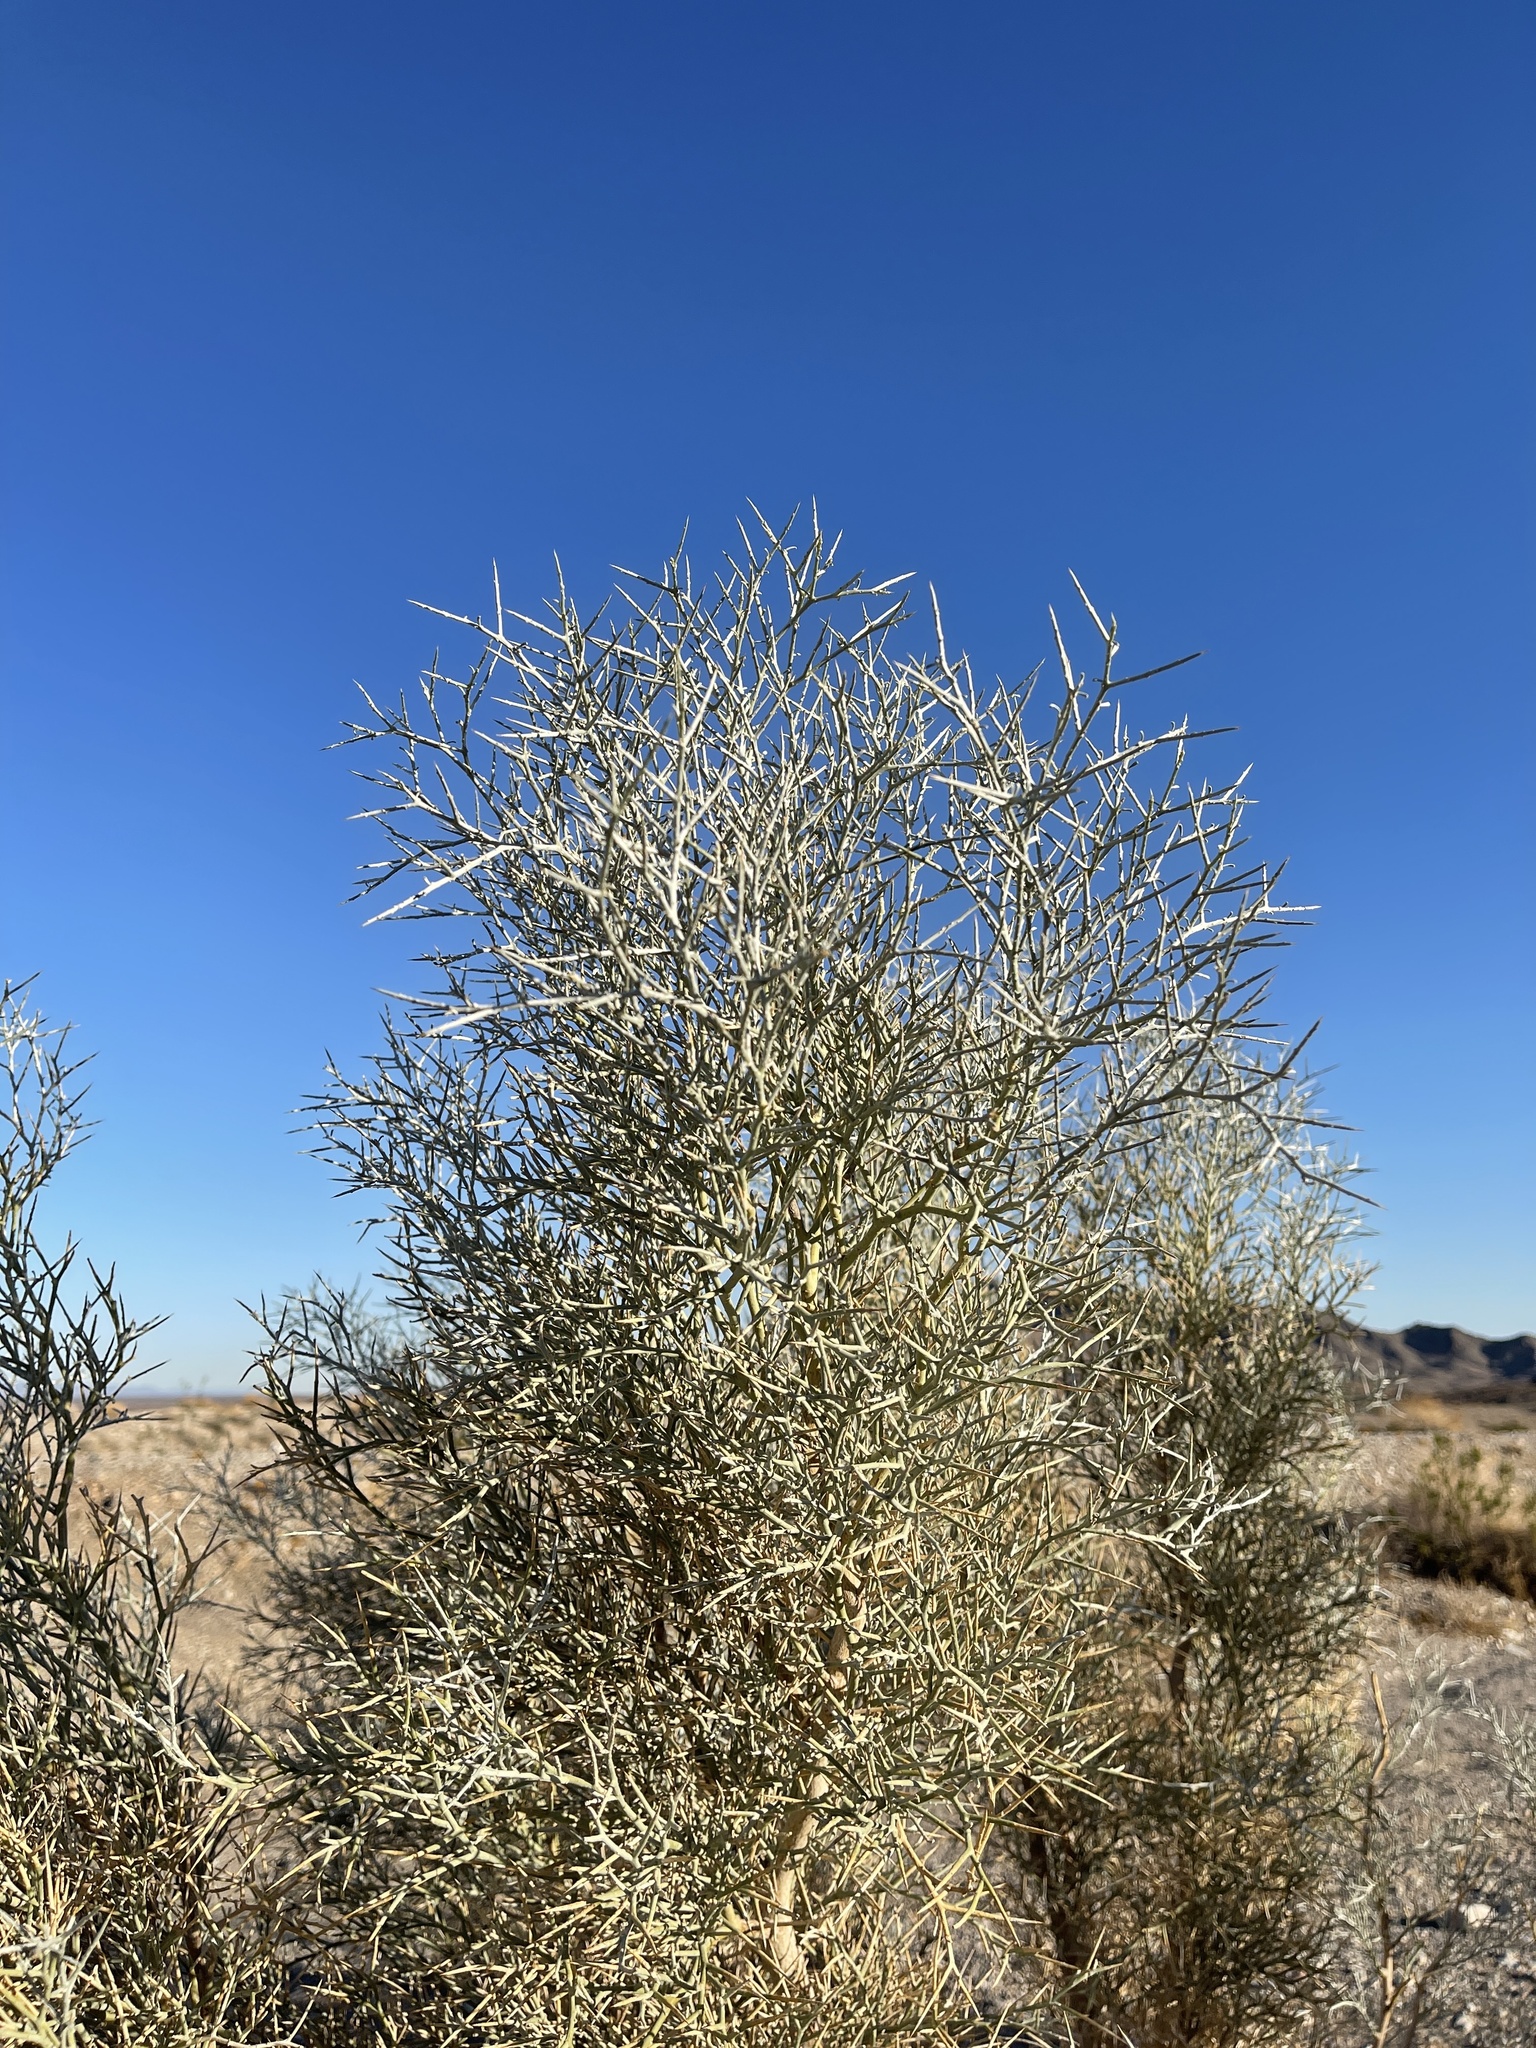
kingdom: Plantae
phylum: Tracheophyta
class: Magnoliopsida
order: Fabales
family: Fabaceae
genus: Psorothamnus
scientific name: Psorothamnus spinosus
